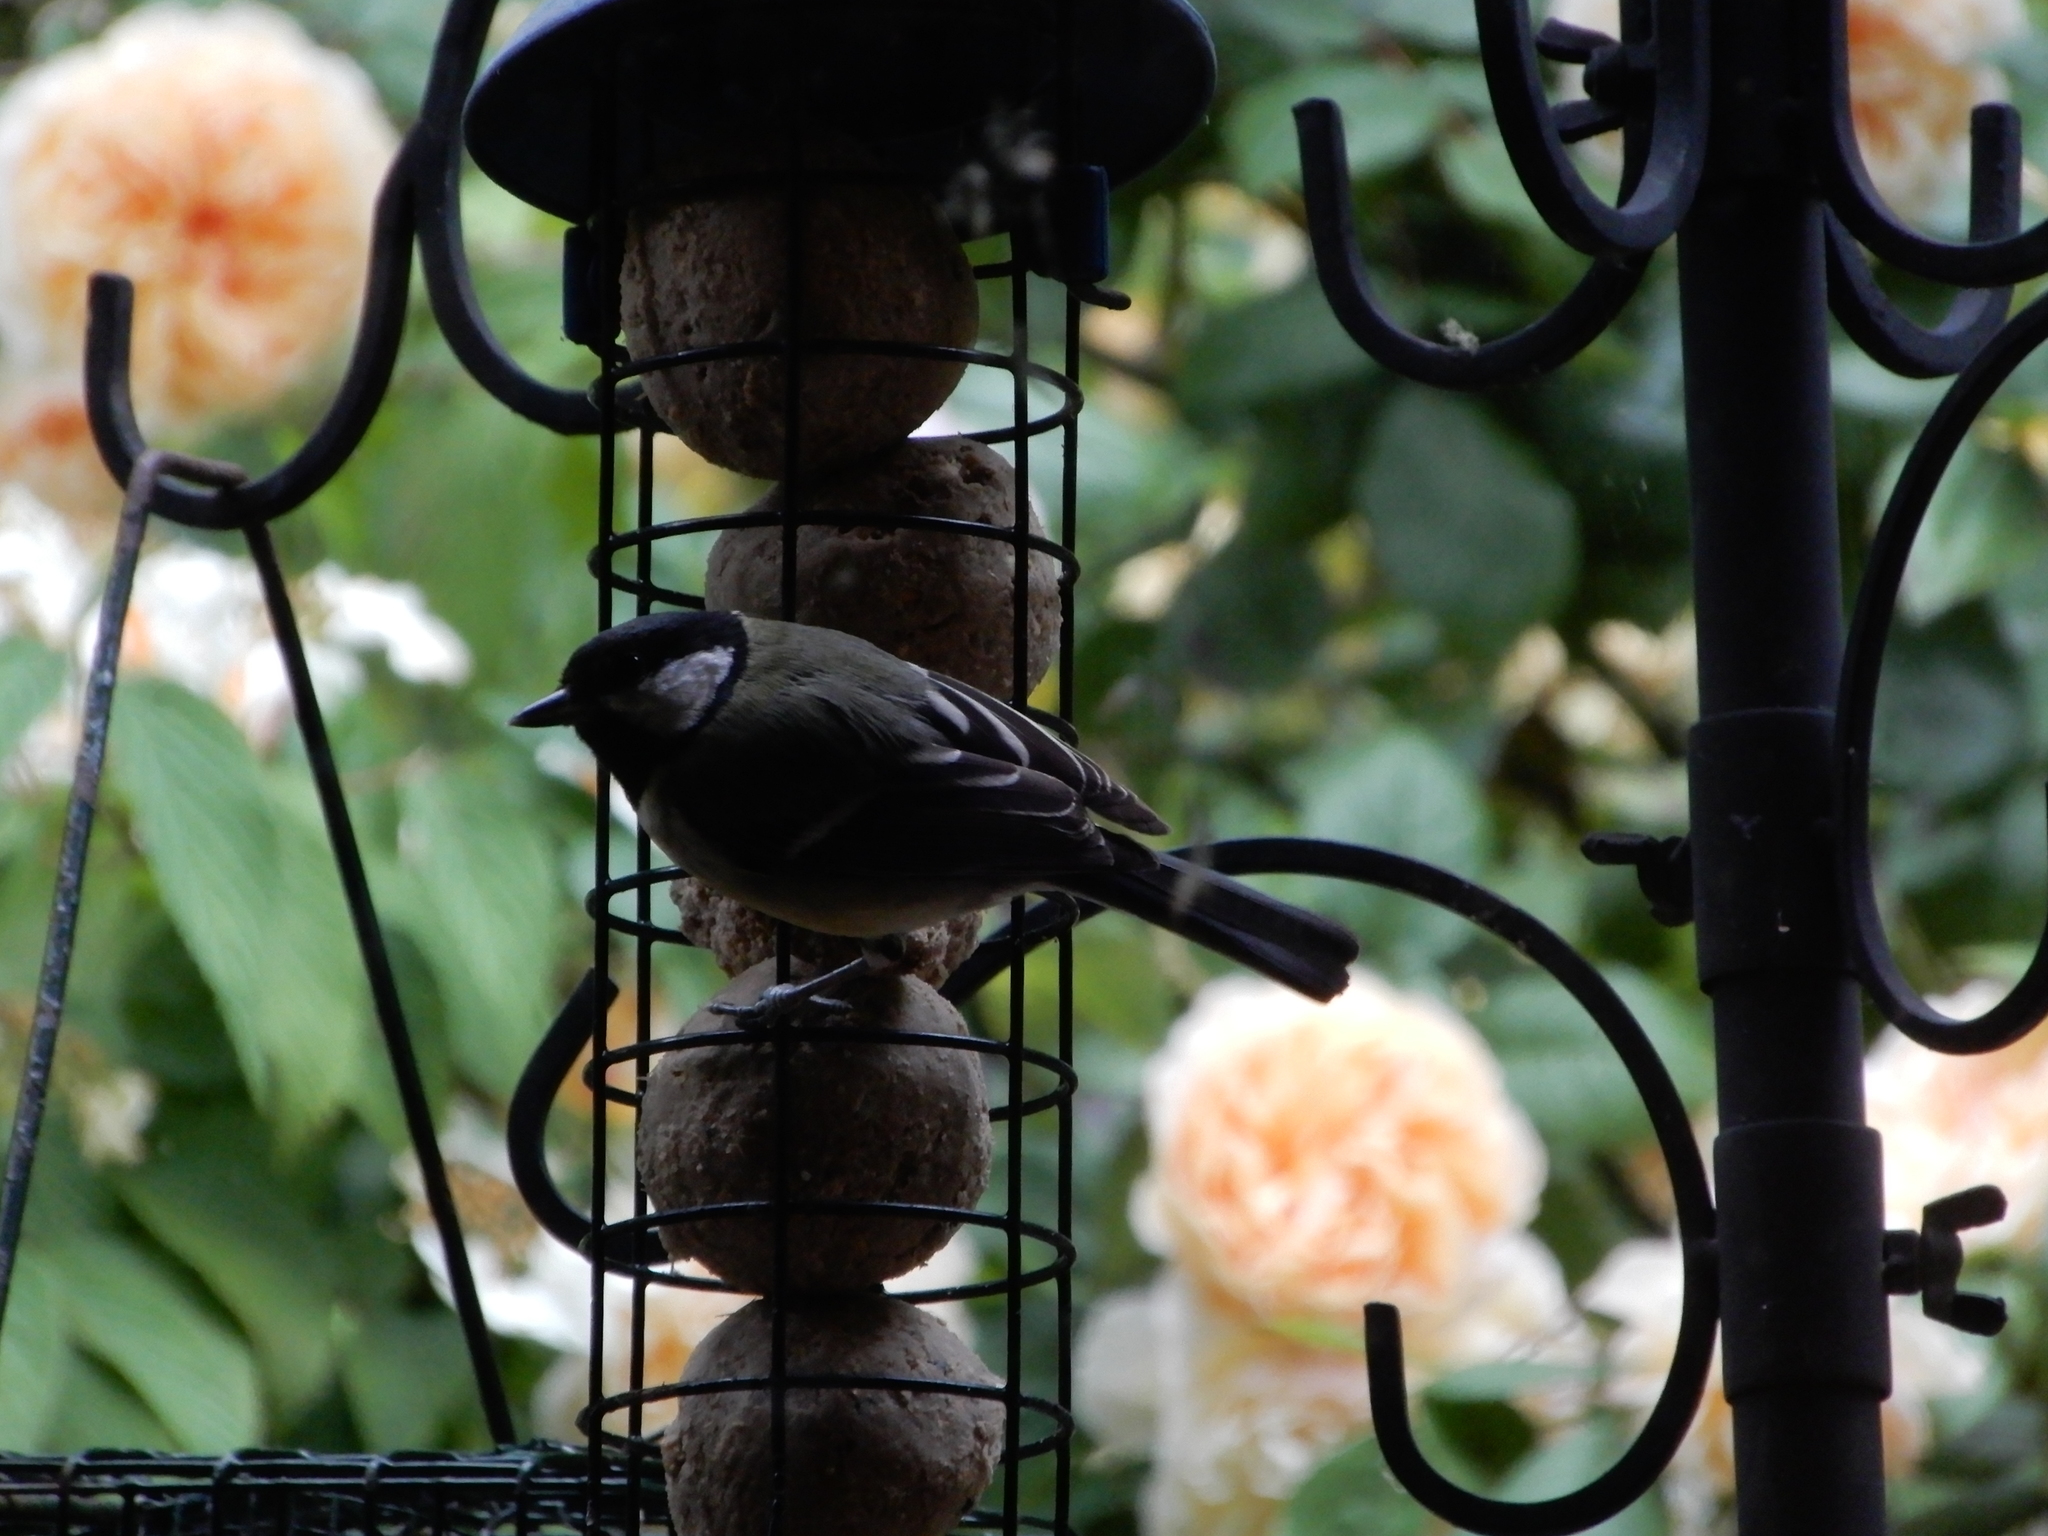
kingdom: Animalia
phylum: Chordata
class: Aves
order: Passeriformes
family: Paridae
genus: Parus
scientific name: Parus major
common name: Great tit
